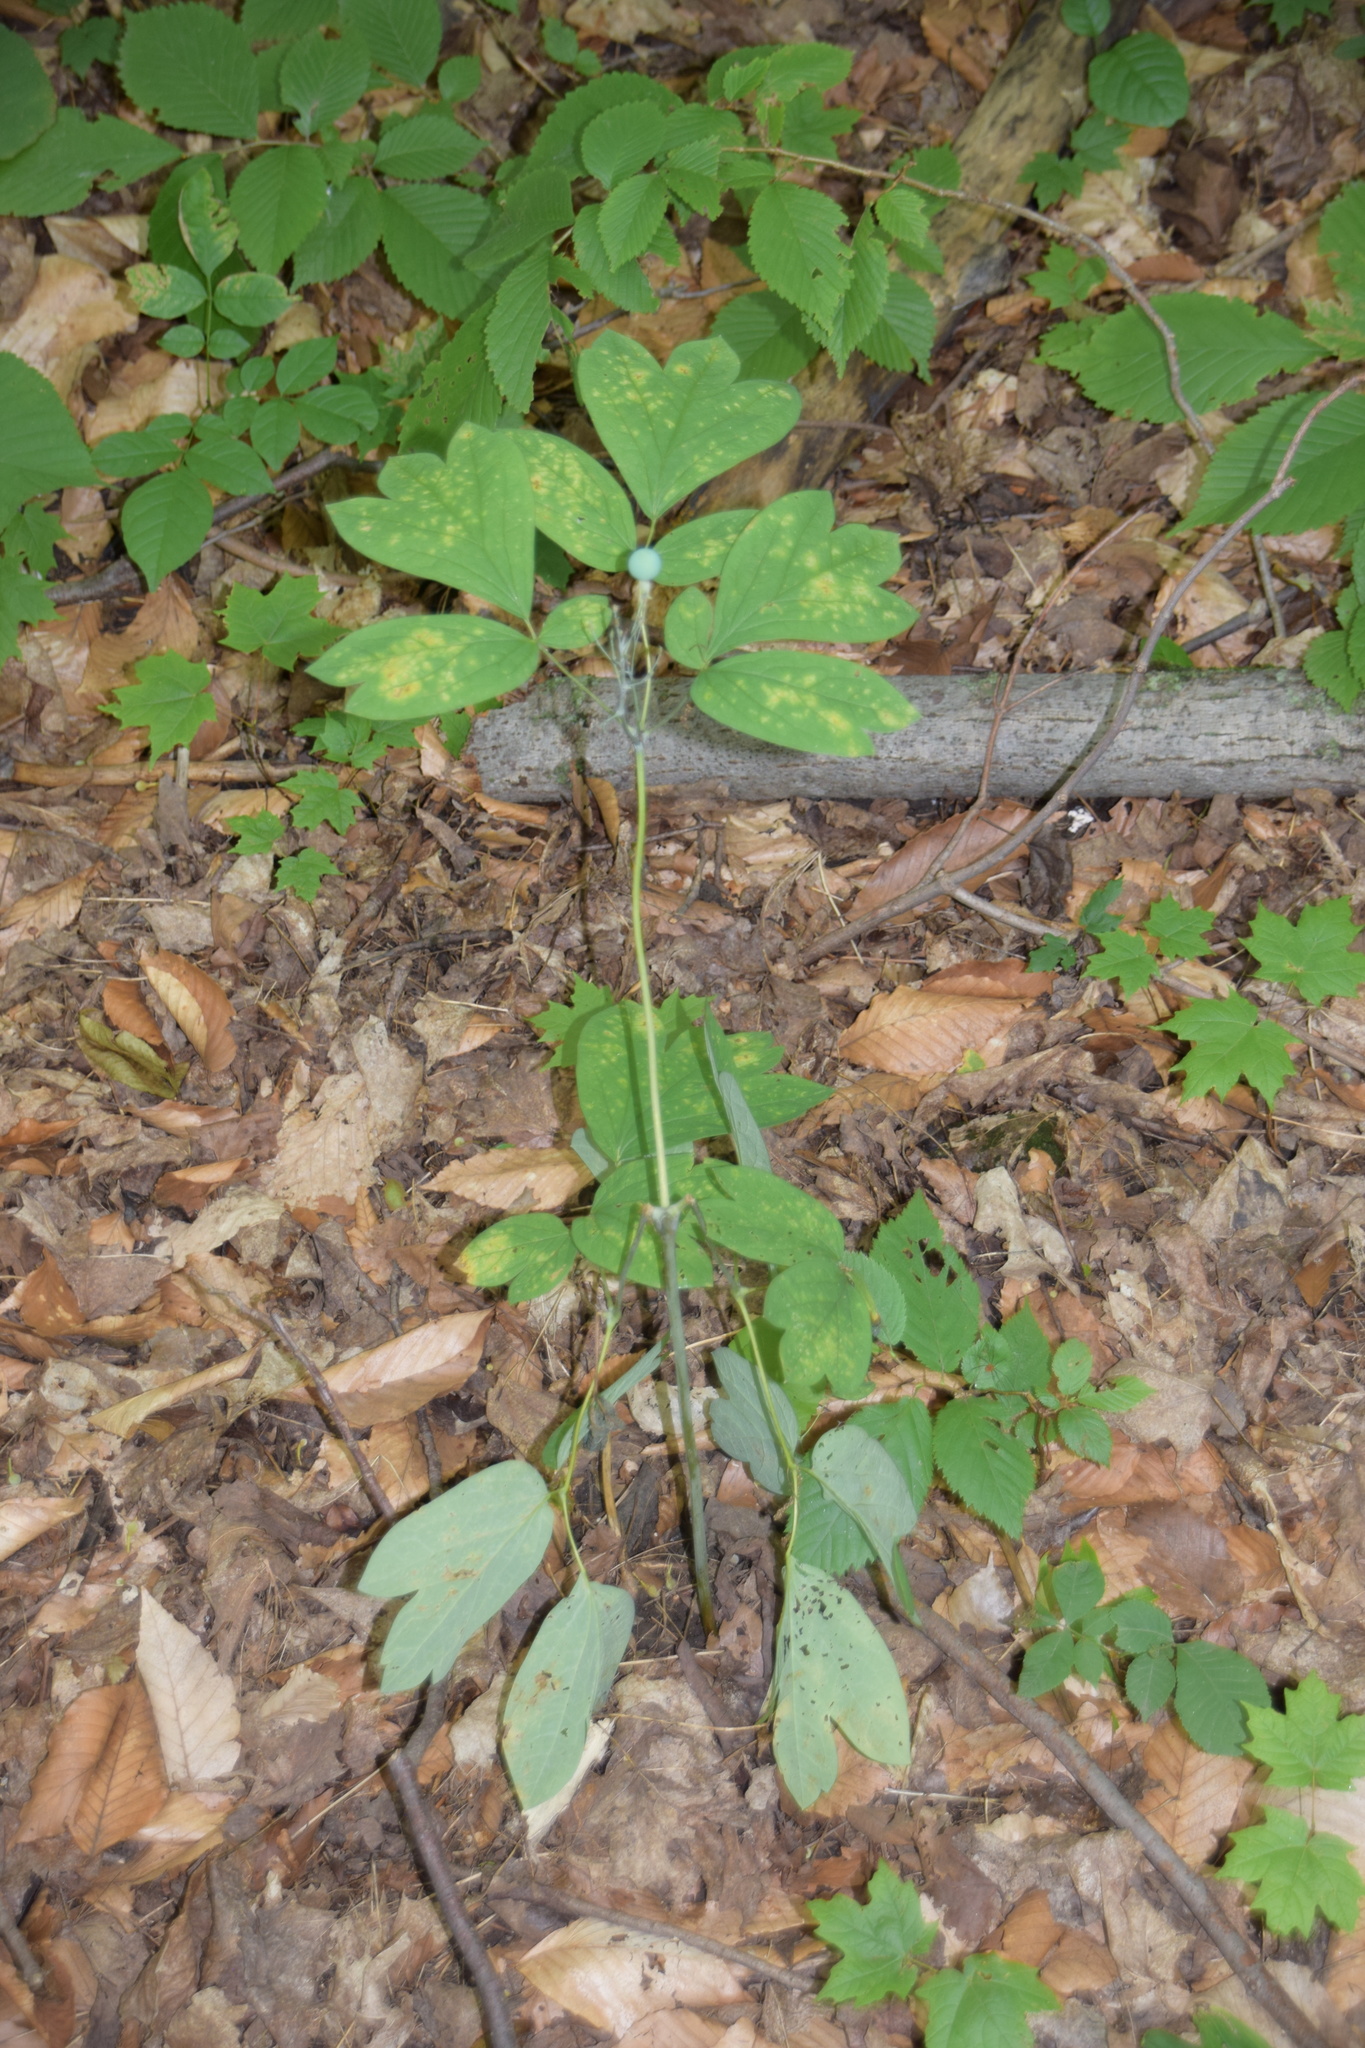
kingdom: Plantae
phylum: Tracheophyta
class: Magnoliopsida
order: Ranunculales
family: Berberidaceae
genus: Caulophyllum
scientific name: Caulophyllum
